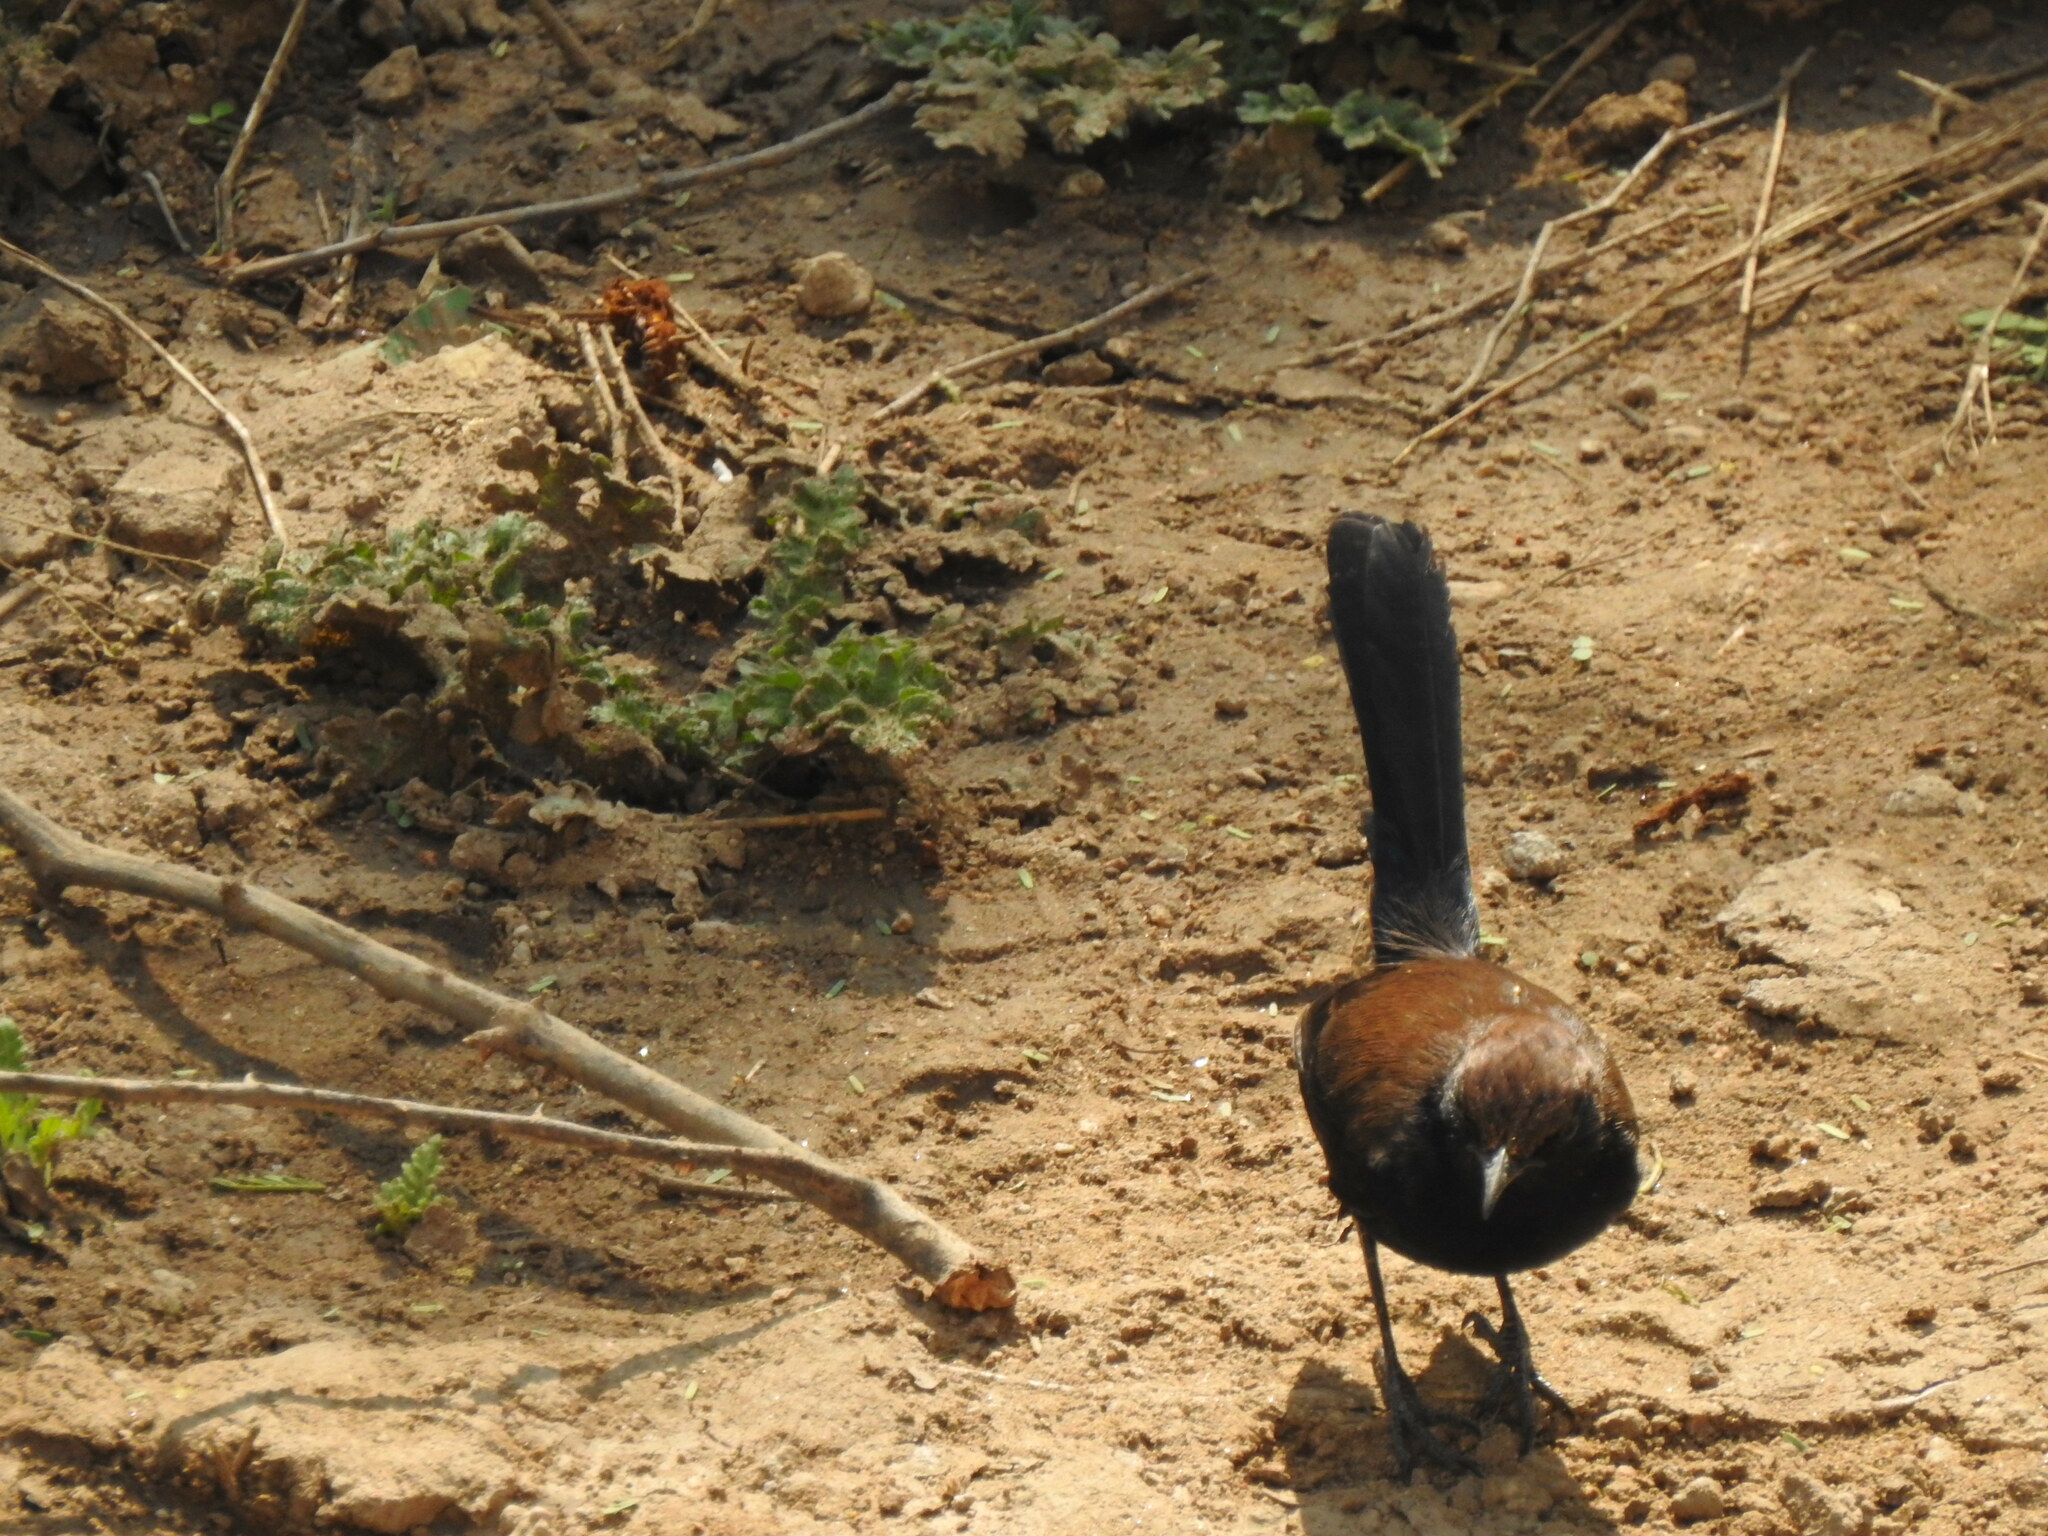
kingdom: Animalia
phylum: Chordata
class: Aves
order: Passeriformes
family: Muscicapidae
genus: Saxicoloides
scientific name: Saxicoloides fulicatus
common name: Indian robin
